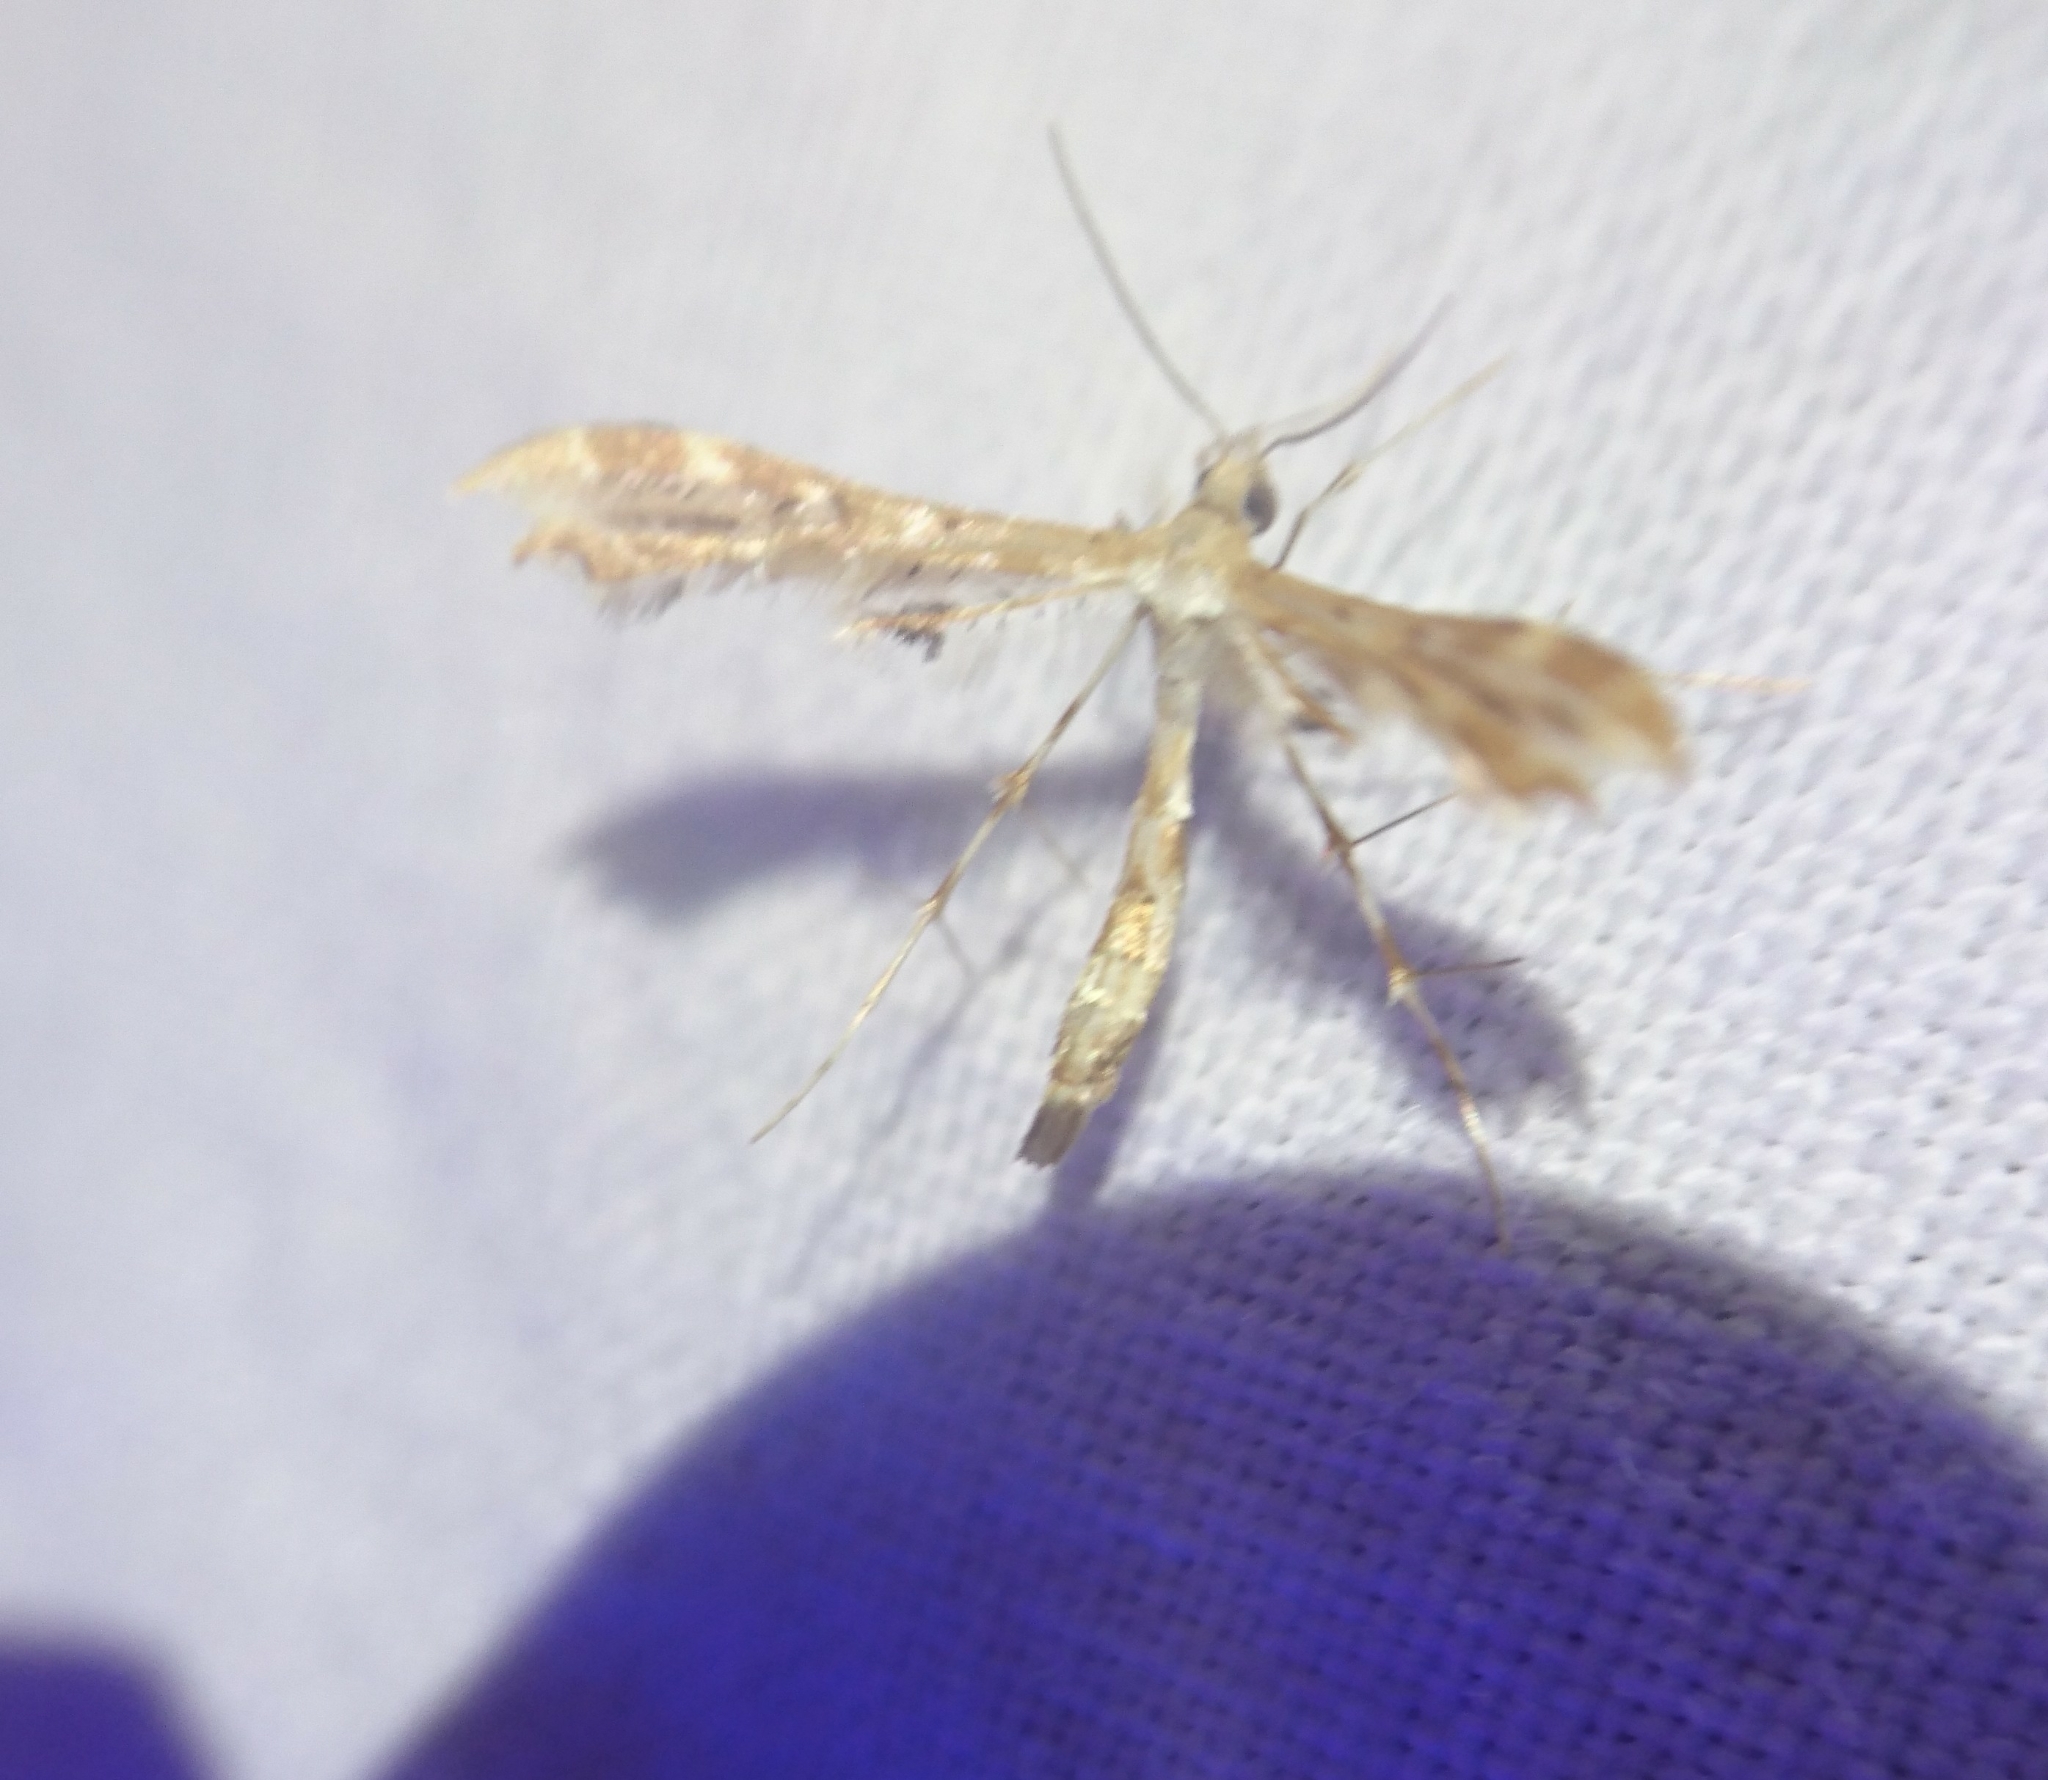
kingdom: Animalia
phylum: Arthropoda
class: Insecta
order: Lepidoptera
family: Pterophoridae
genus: Sphenarches
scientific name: Sphenarches anisodactylus
